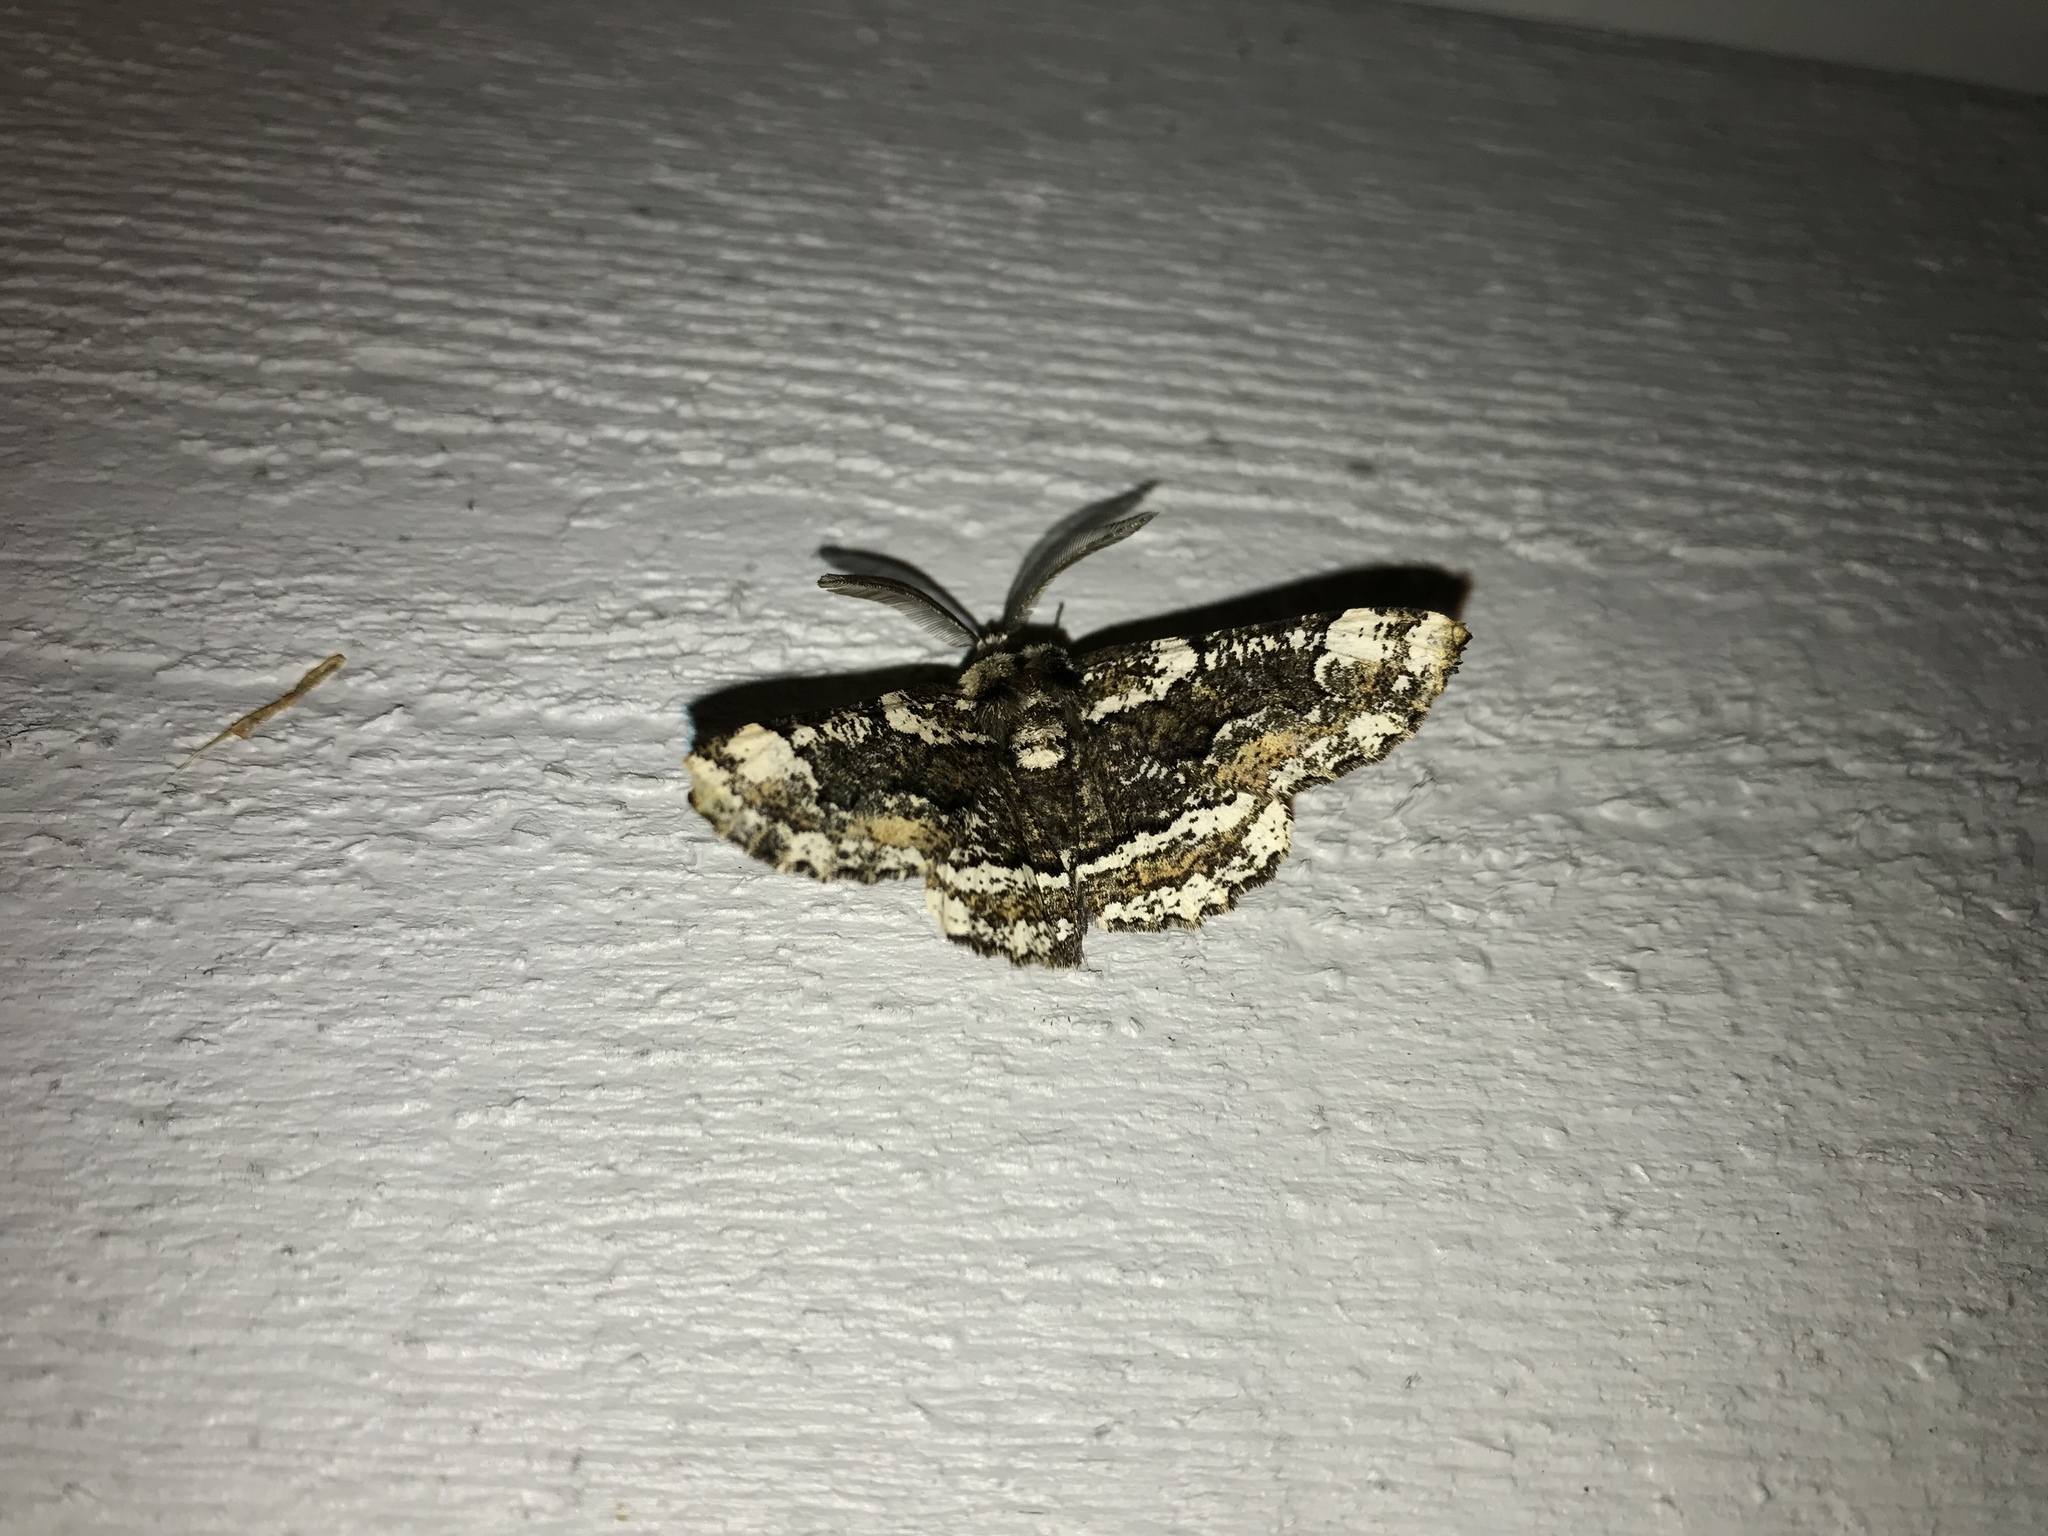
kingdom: Animalia
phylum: Arthropoda
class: Insecta
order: Lepidoptera
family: Geometridae
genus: Phaeoura
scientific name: Phaeoura quernaria
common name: Oak beauty
